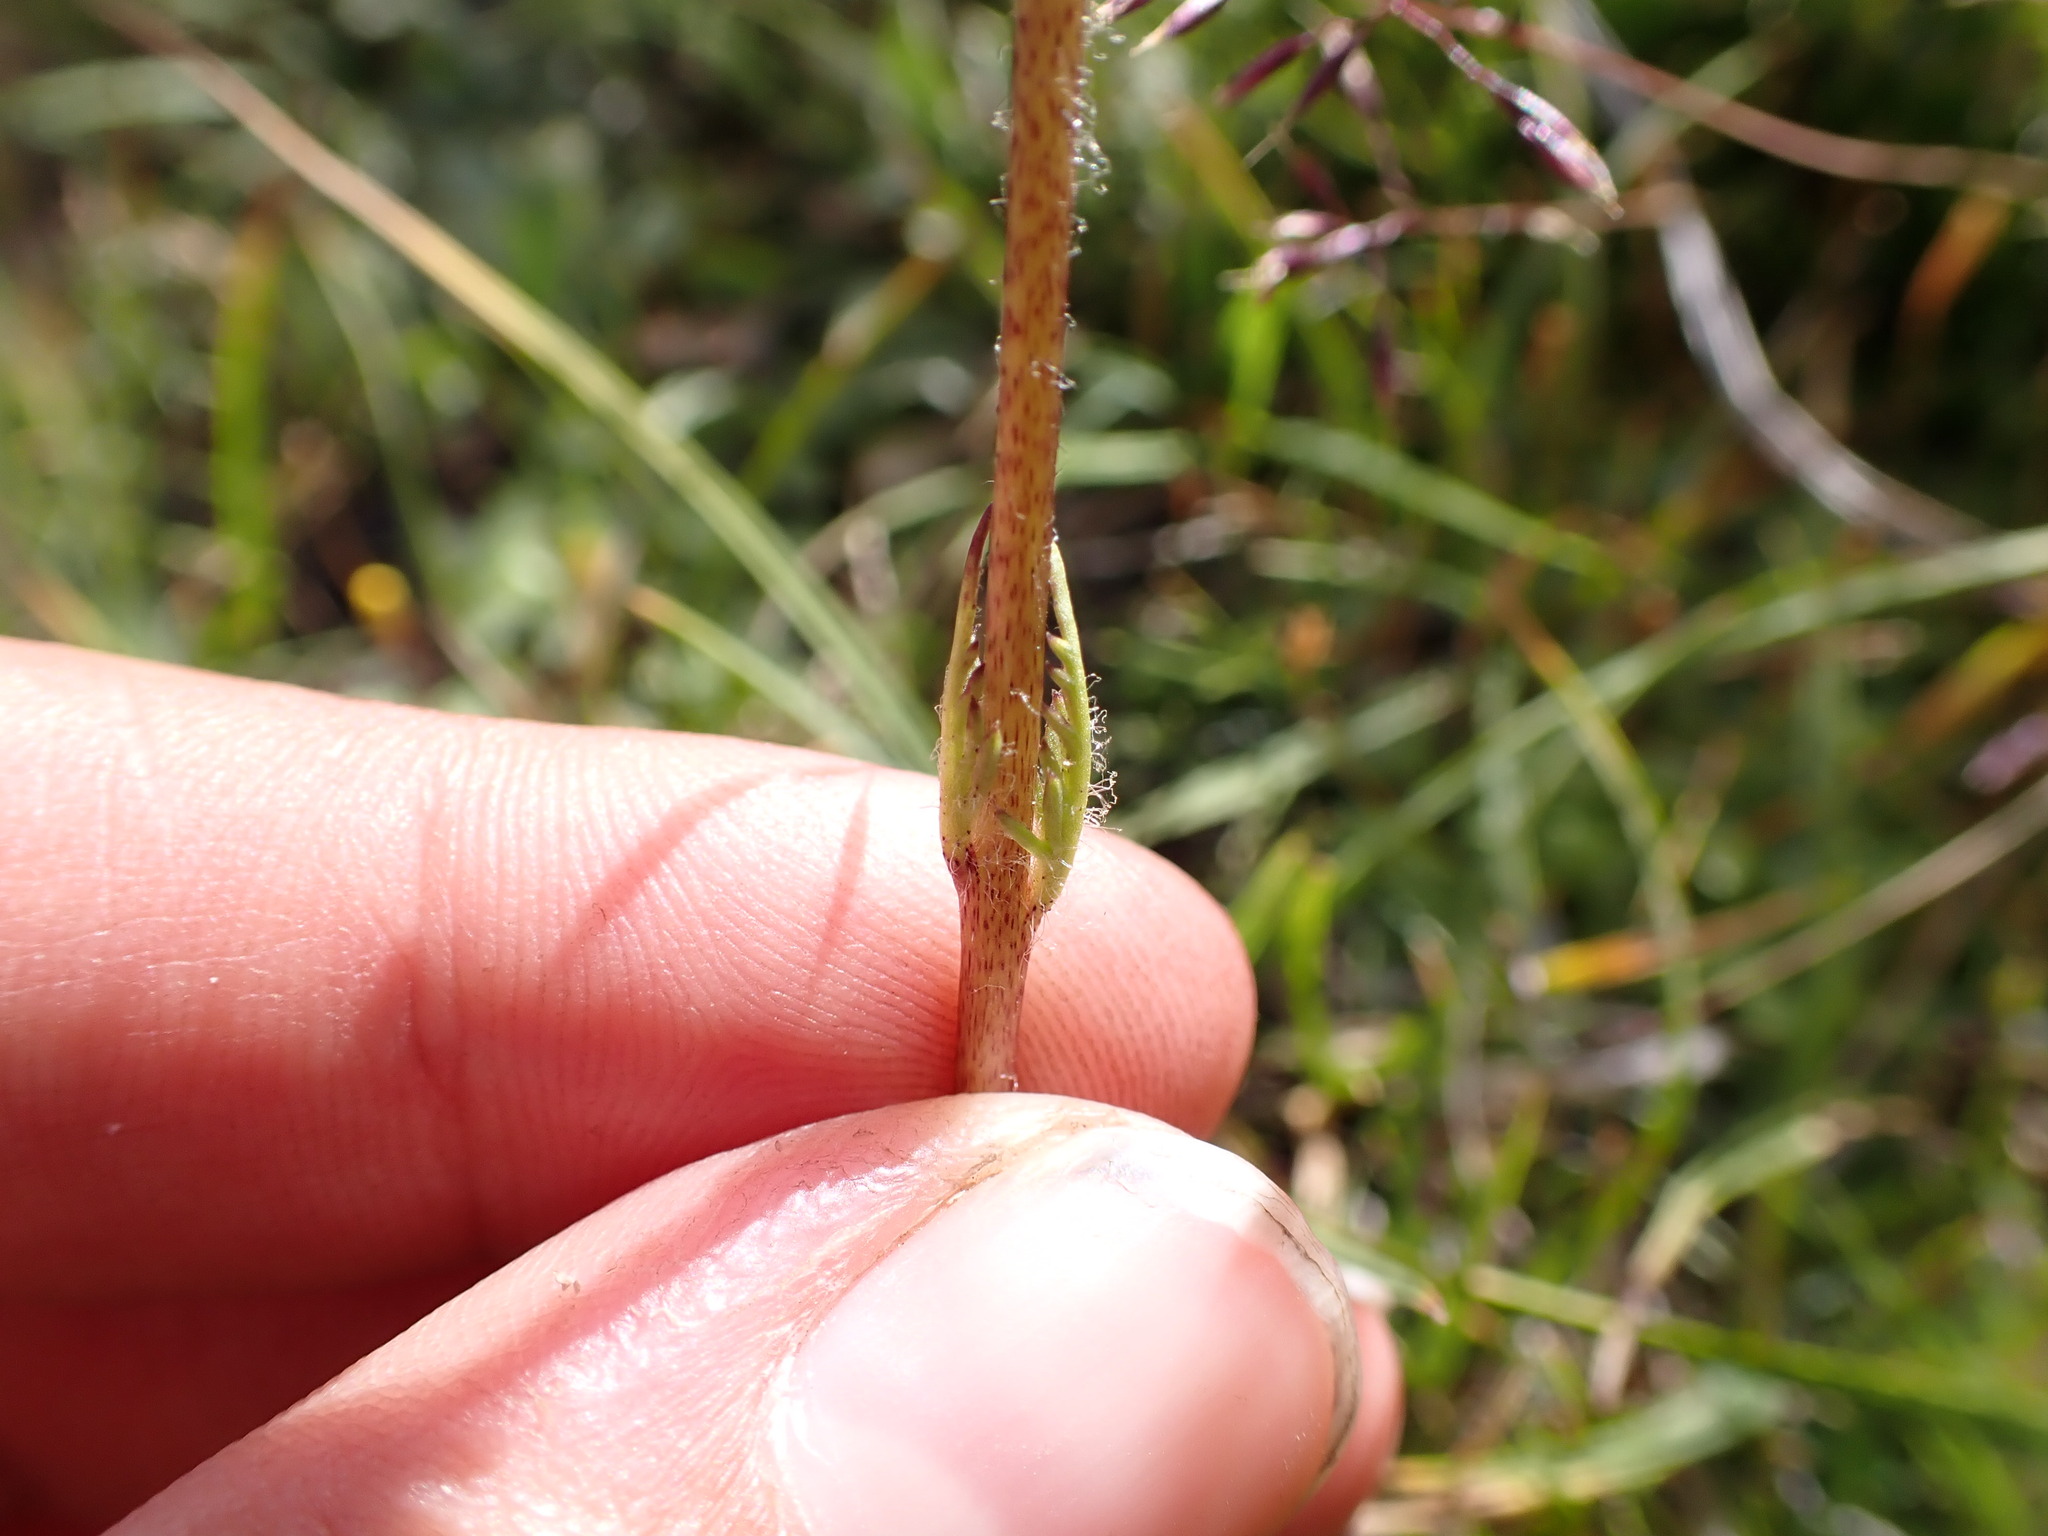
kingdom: Plantae
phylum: Tracheophyta
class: Magnoliopsida
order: Lamiales
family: Orobanchaceae
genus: Pedicularis
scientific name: Pedicularis attollens
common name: Slender pedicularis
